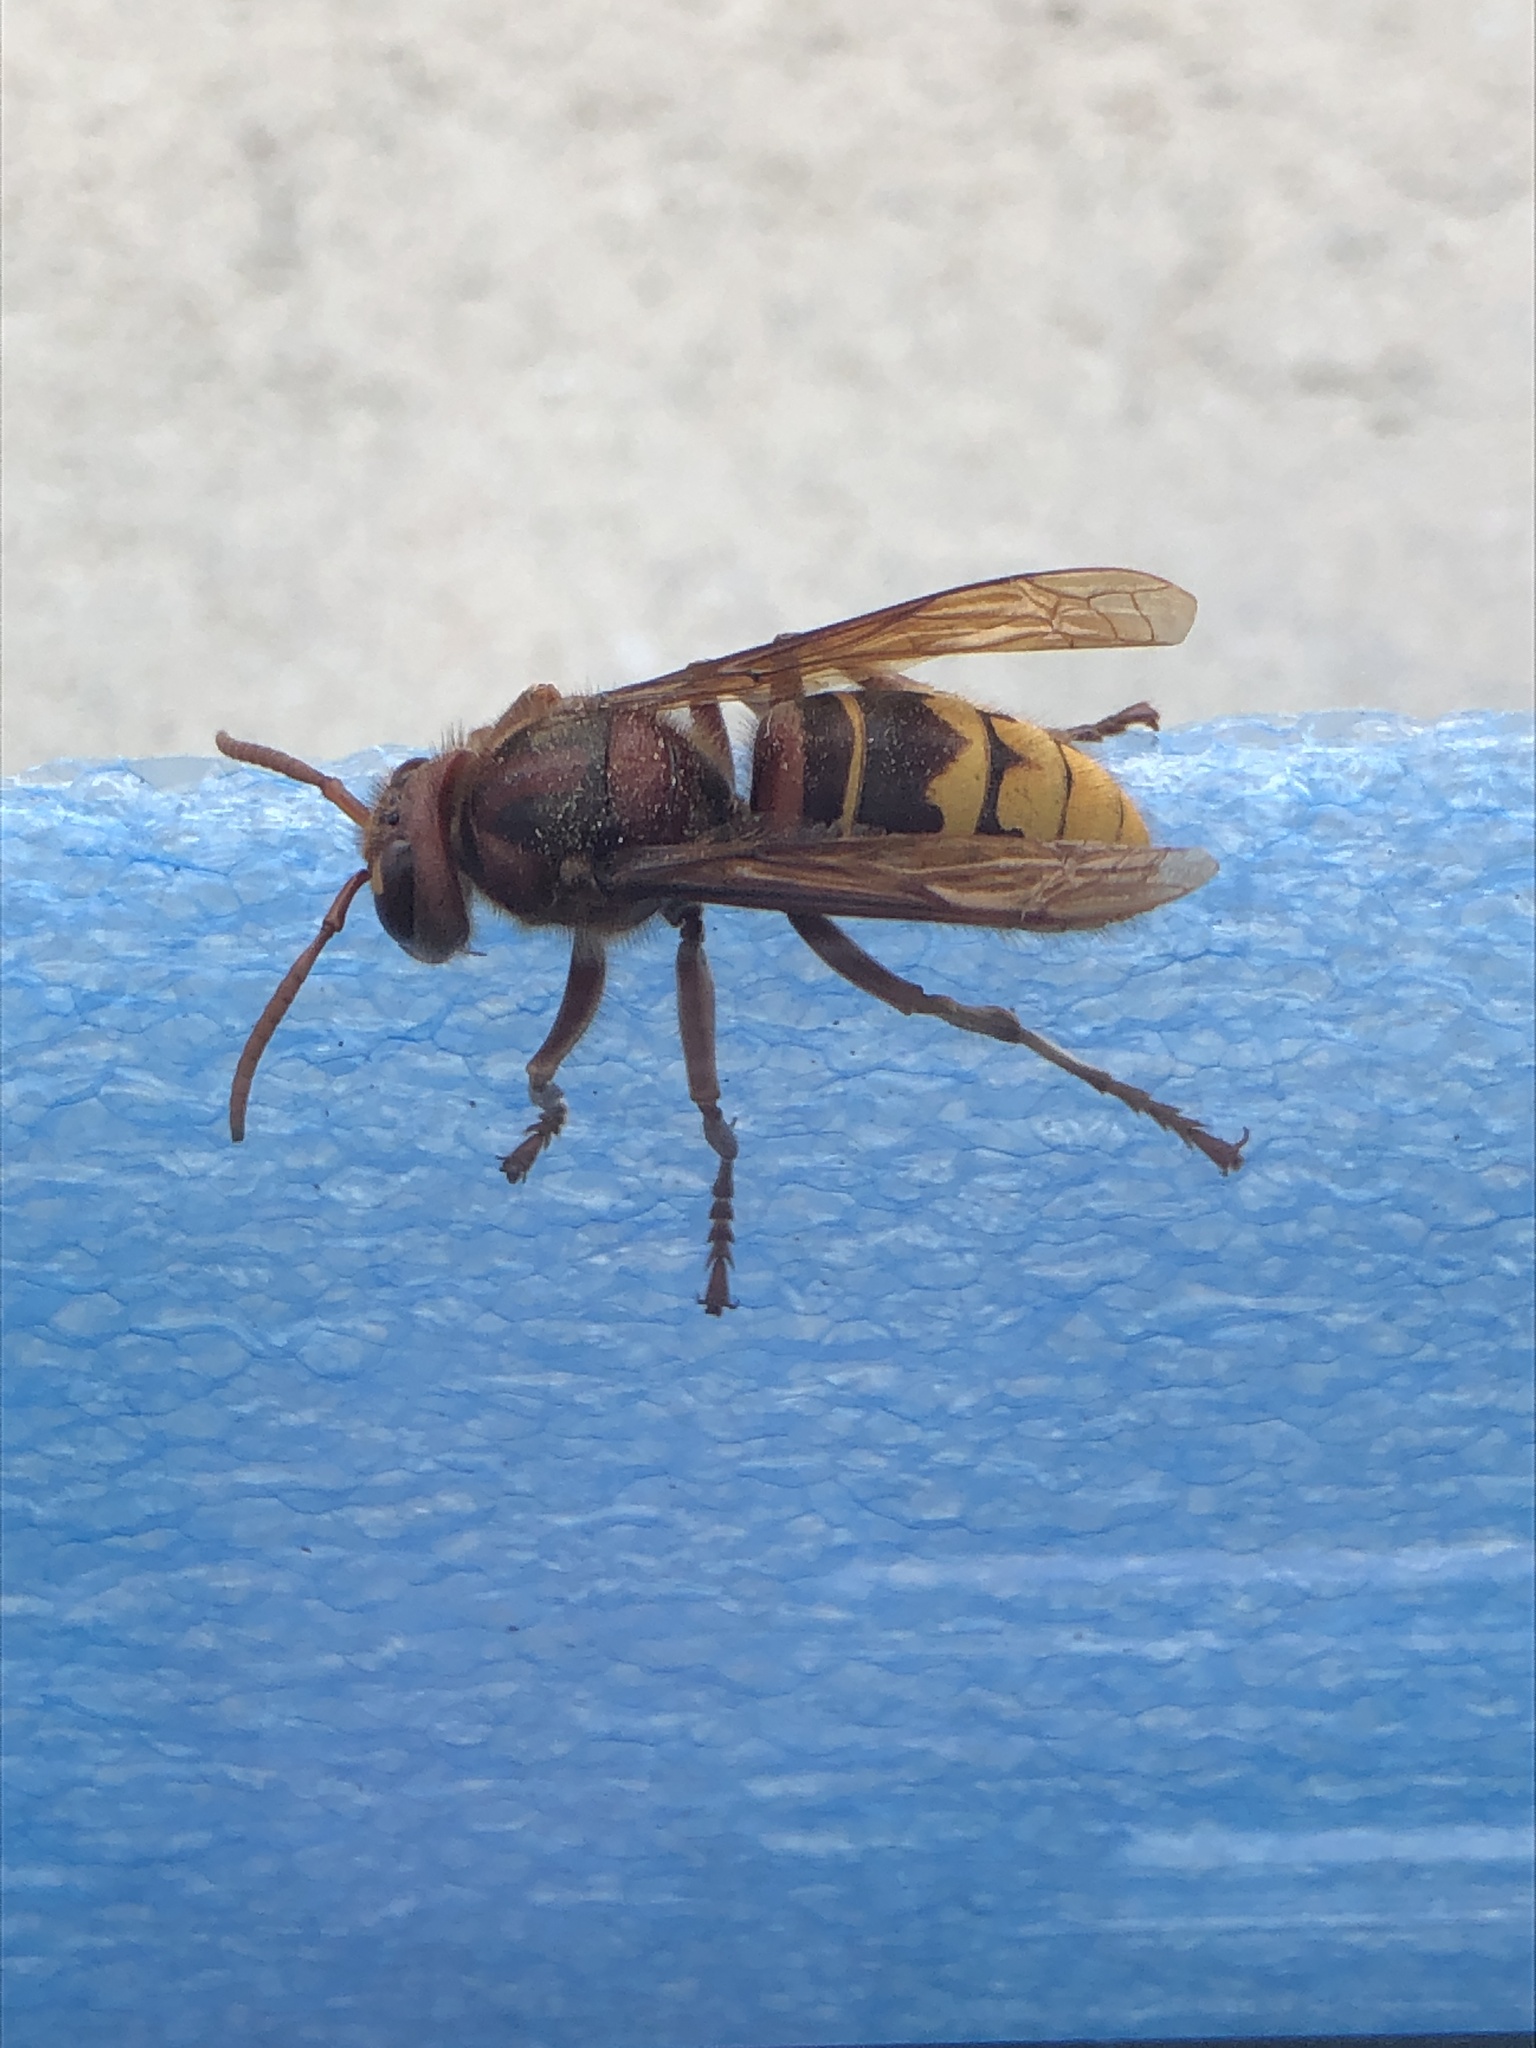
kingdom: Animalia
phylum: Arthropoda
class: Insecta
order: Hymenoptera
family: Vespidae
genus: Vespa
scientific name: Vespa crabro
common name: Hornet
